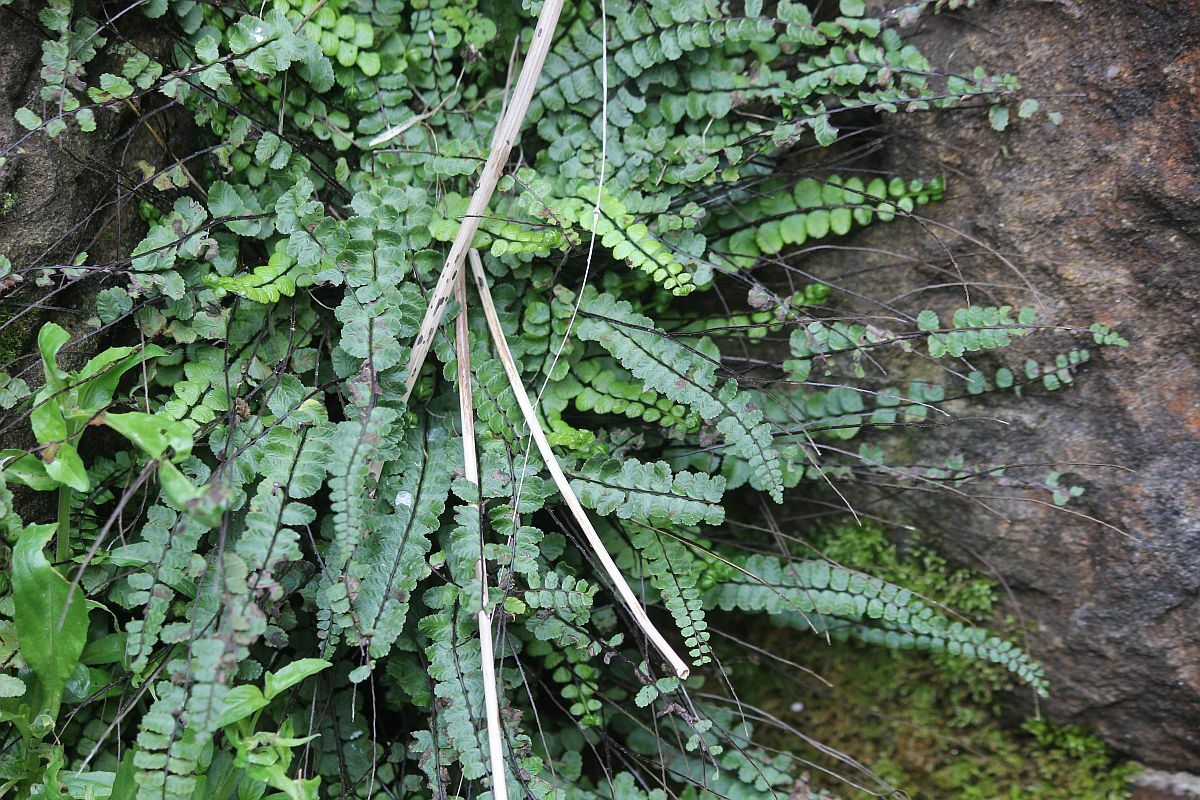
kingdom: Plantae
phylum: Tracheophyta
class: Polypodiopsida
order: Polypodiales
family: Aspleniaceae
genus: Asplenium
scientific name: Asplenium trichomanes
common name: Maidenhair spleenwort
